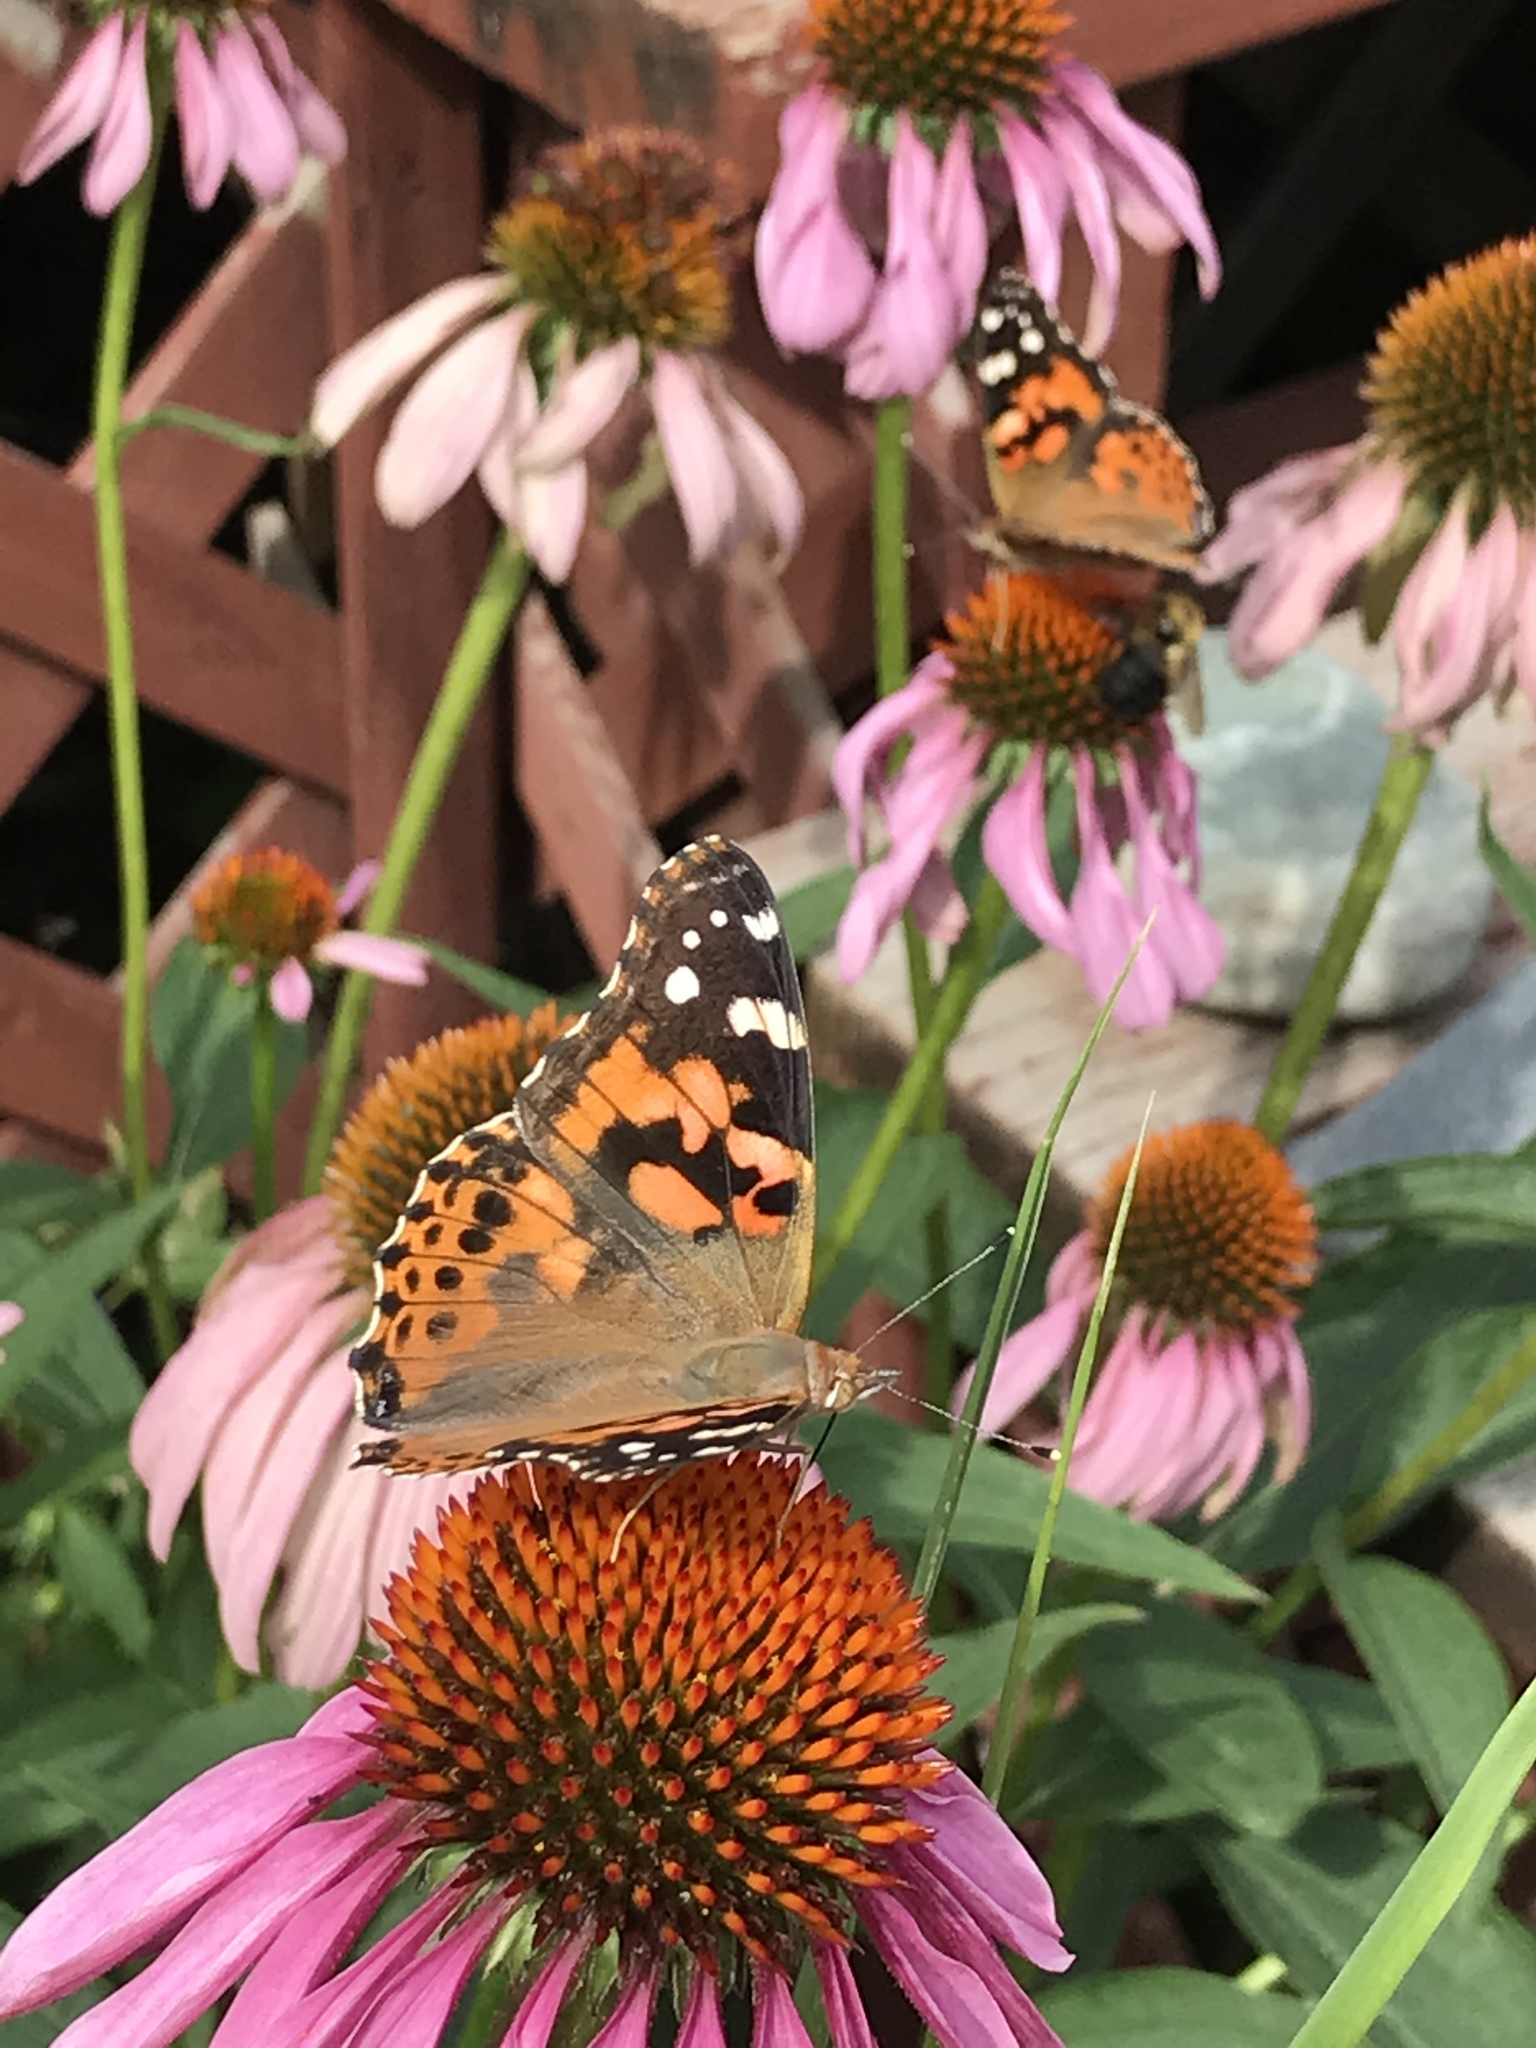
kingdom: Animalia
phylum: Arthropoda
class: Insecta
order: Lepidoptera
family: Nymphalidae
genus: Vanessa
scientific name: Vanessa cardui
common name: Painted lady
